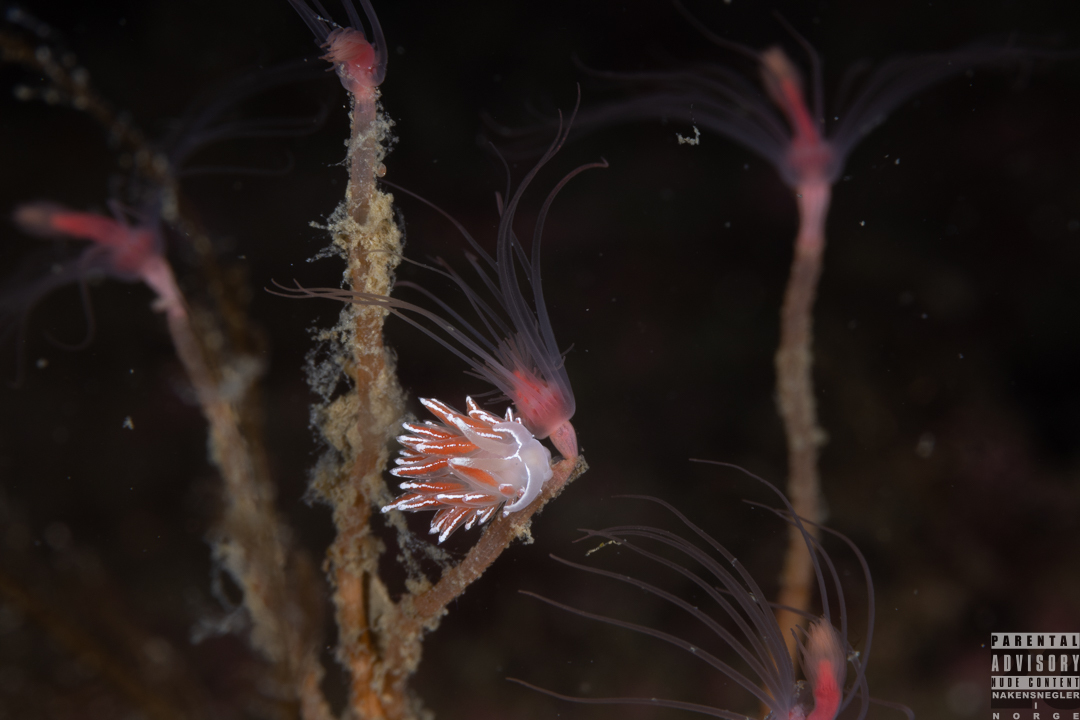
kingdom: Animalia
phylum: Mollusca
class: Gastropoda
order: Nudibranchia
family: Coryphellidae
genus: Coryphella
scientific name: Coryphella lineata
